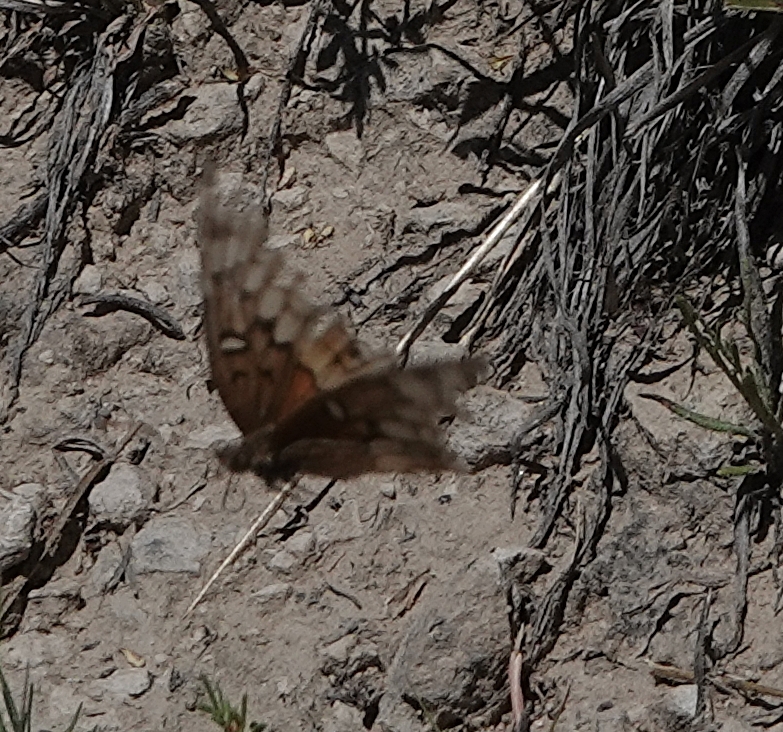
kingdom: Animalia
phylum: Arthropoda
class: Insecta
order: Lepidoptera
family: Nymphalidae
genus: Euptoieta
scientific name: Euptoieta claudia
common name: Variegated fritillary
